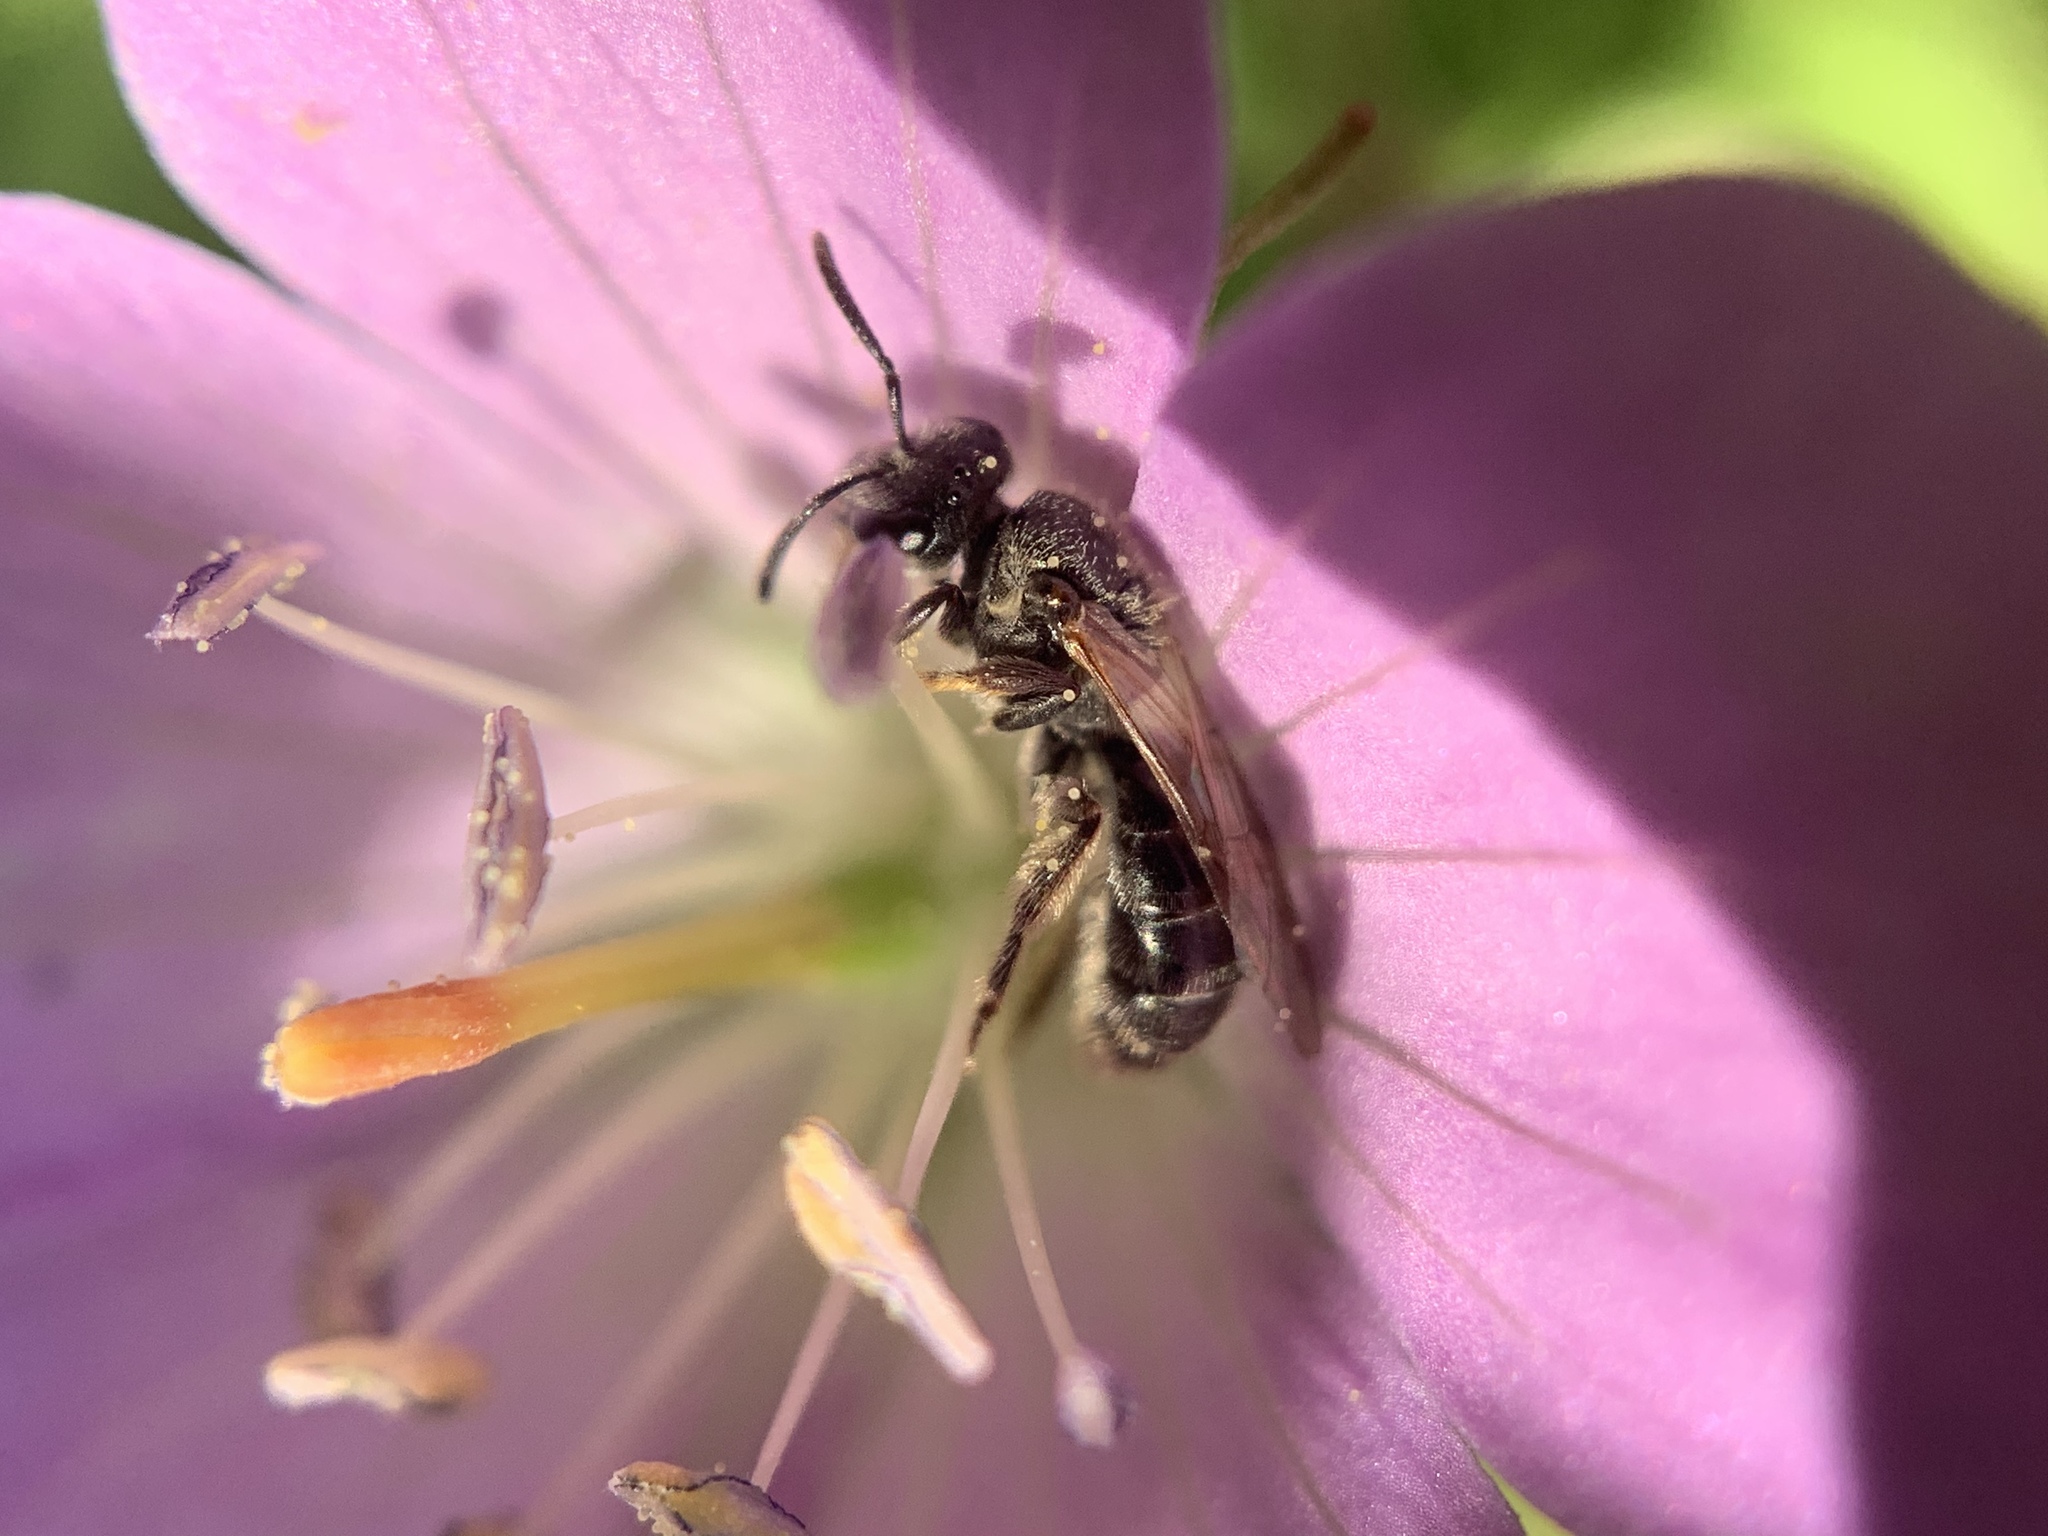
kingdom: Animalia
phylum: Arthropoda
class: Insecta
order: Hymenoptera
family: Halictidae
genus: Dialictus
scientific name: Dialictus
